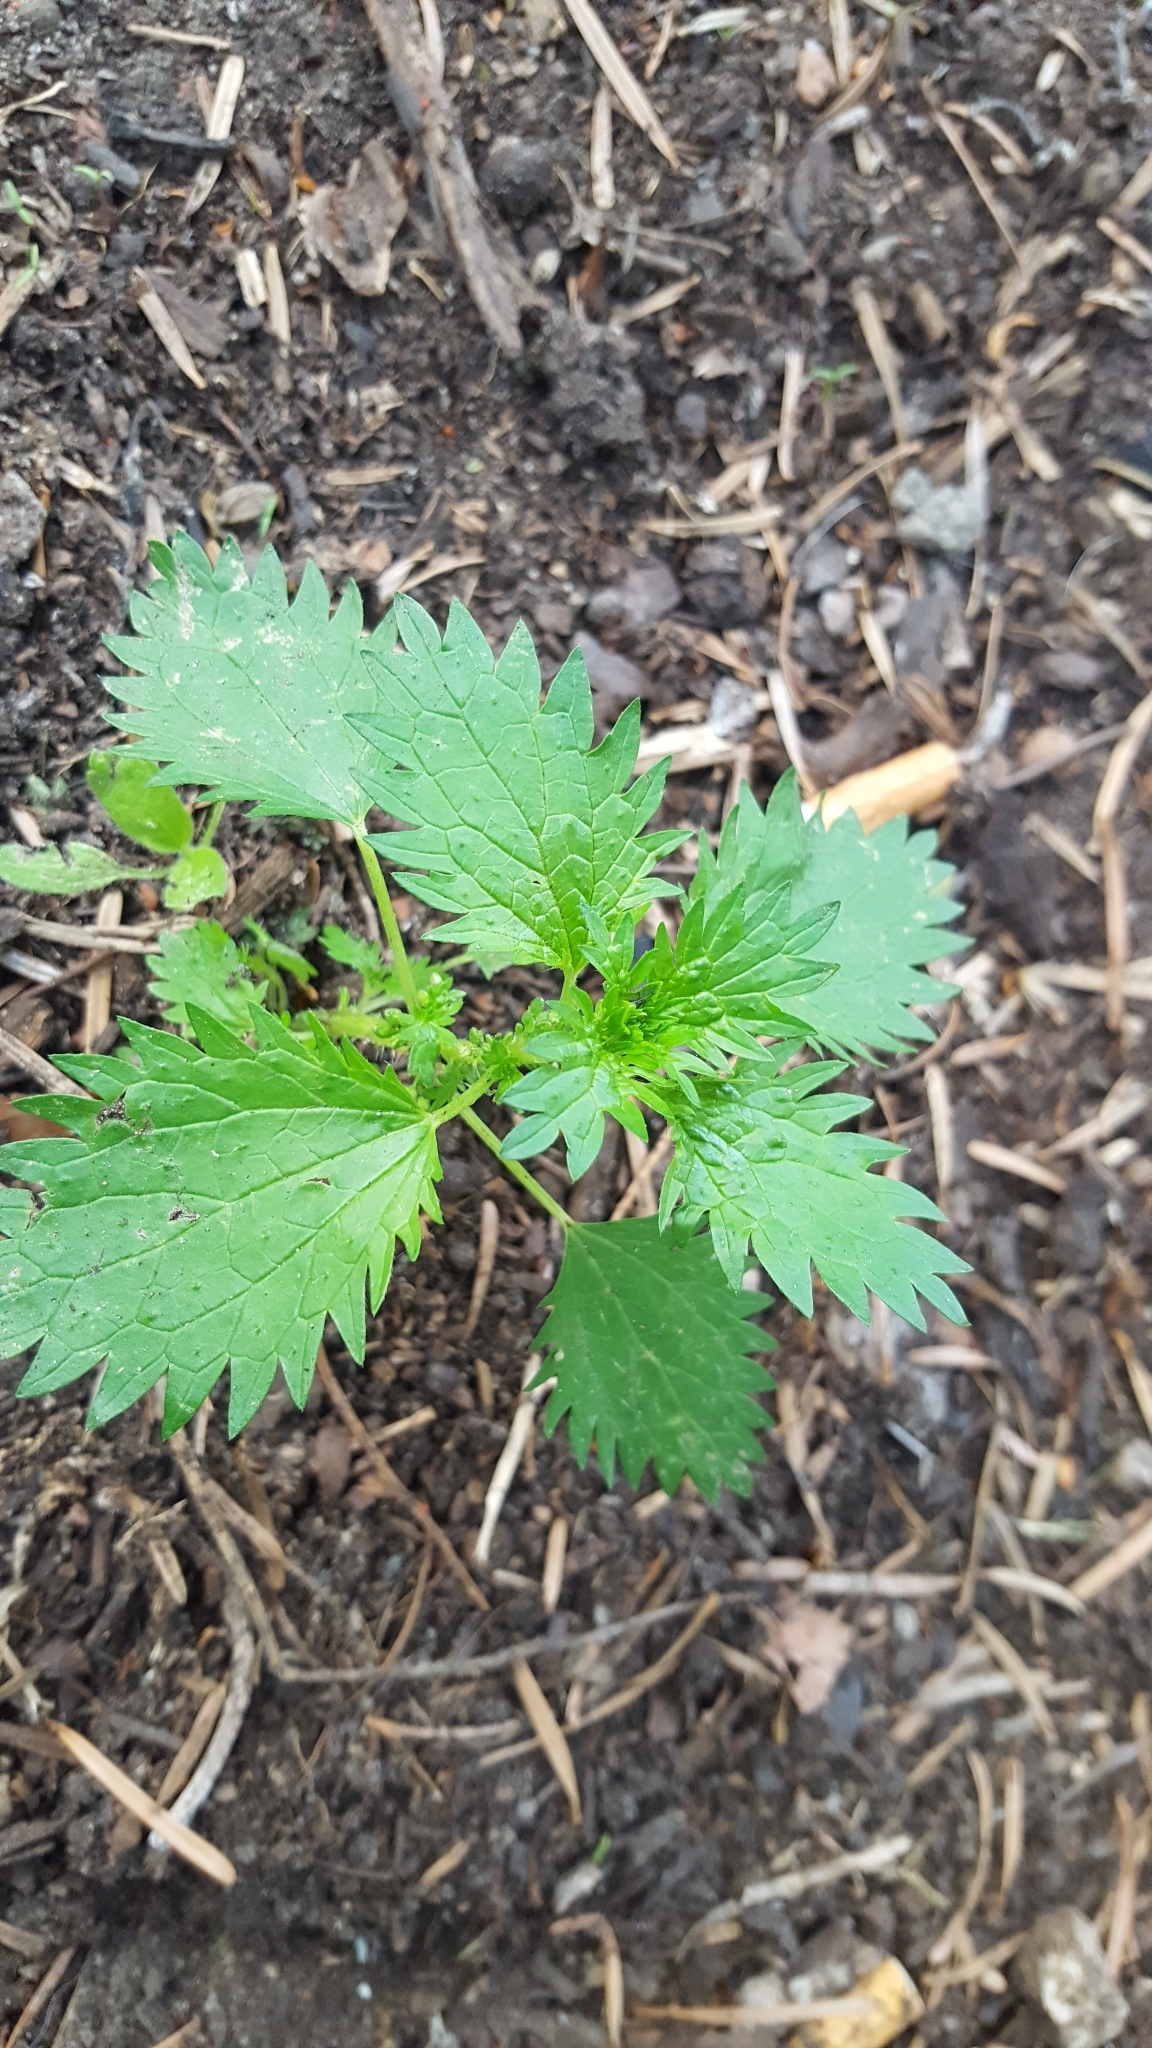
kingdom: Plantae
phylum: Tracheophyta
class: Magnoliopsida
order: Rosales
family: Urticaceae
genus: Urtica
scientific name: Urtica urens
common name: Dwarf nettle
